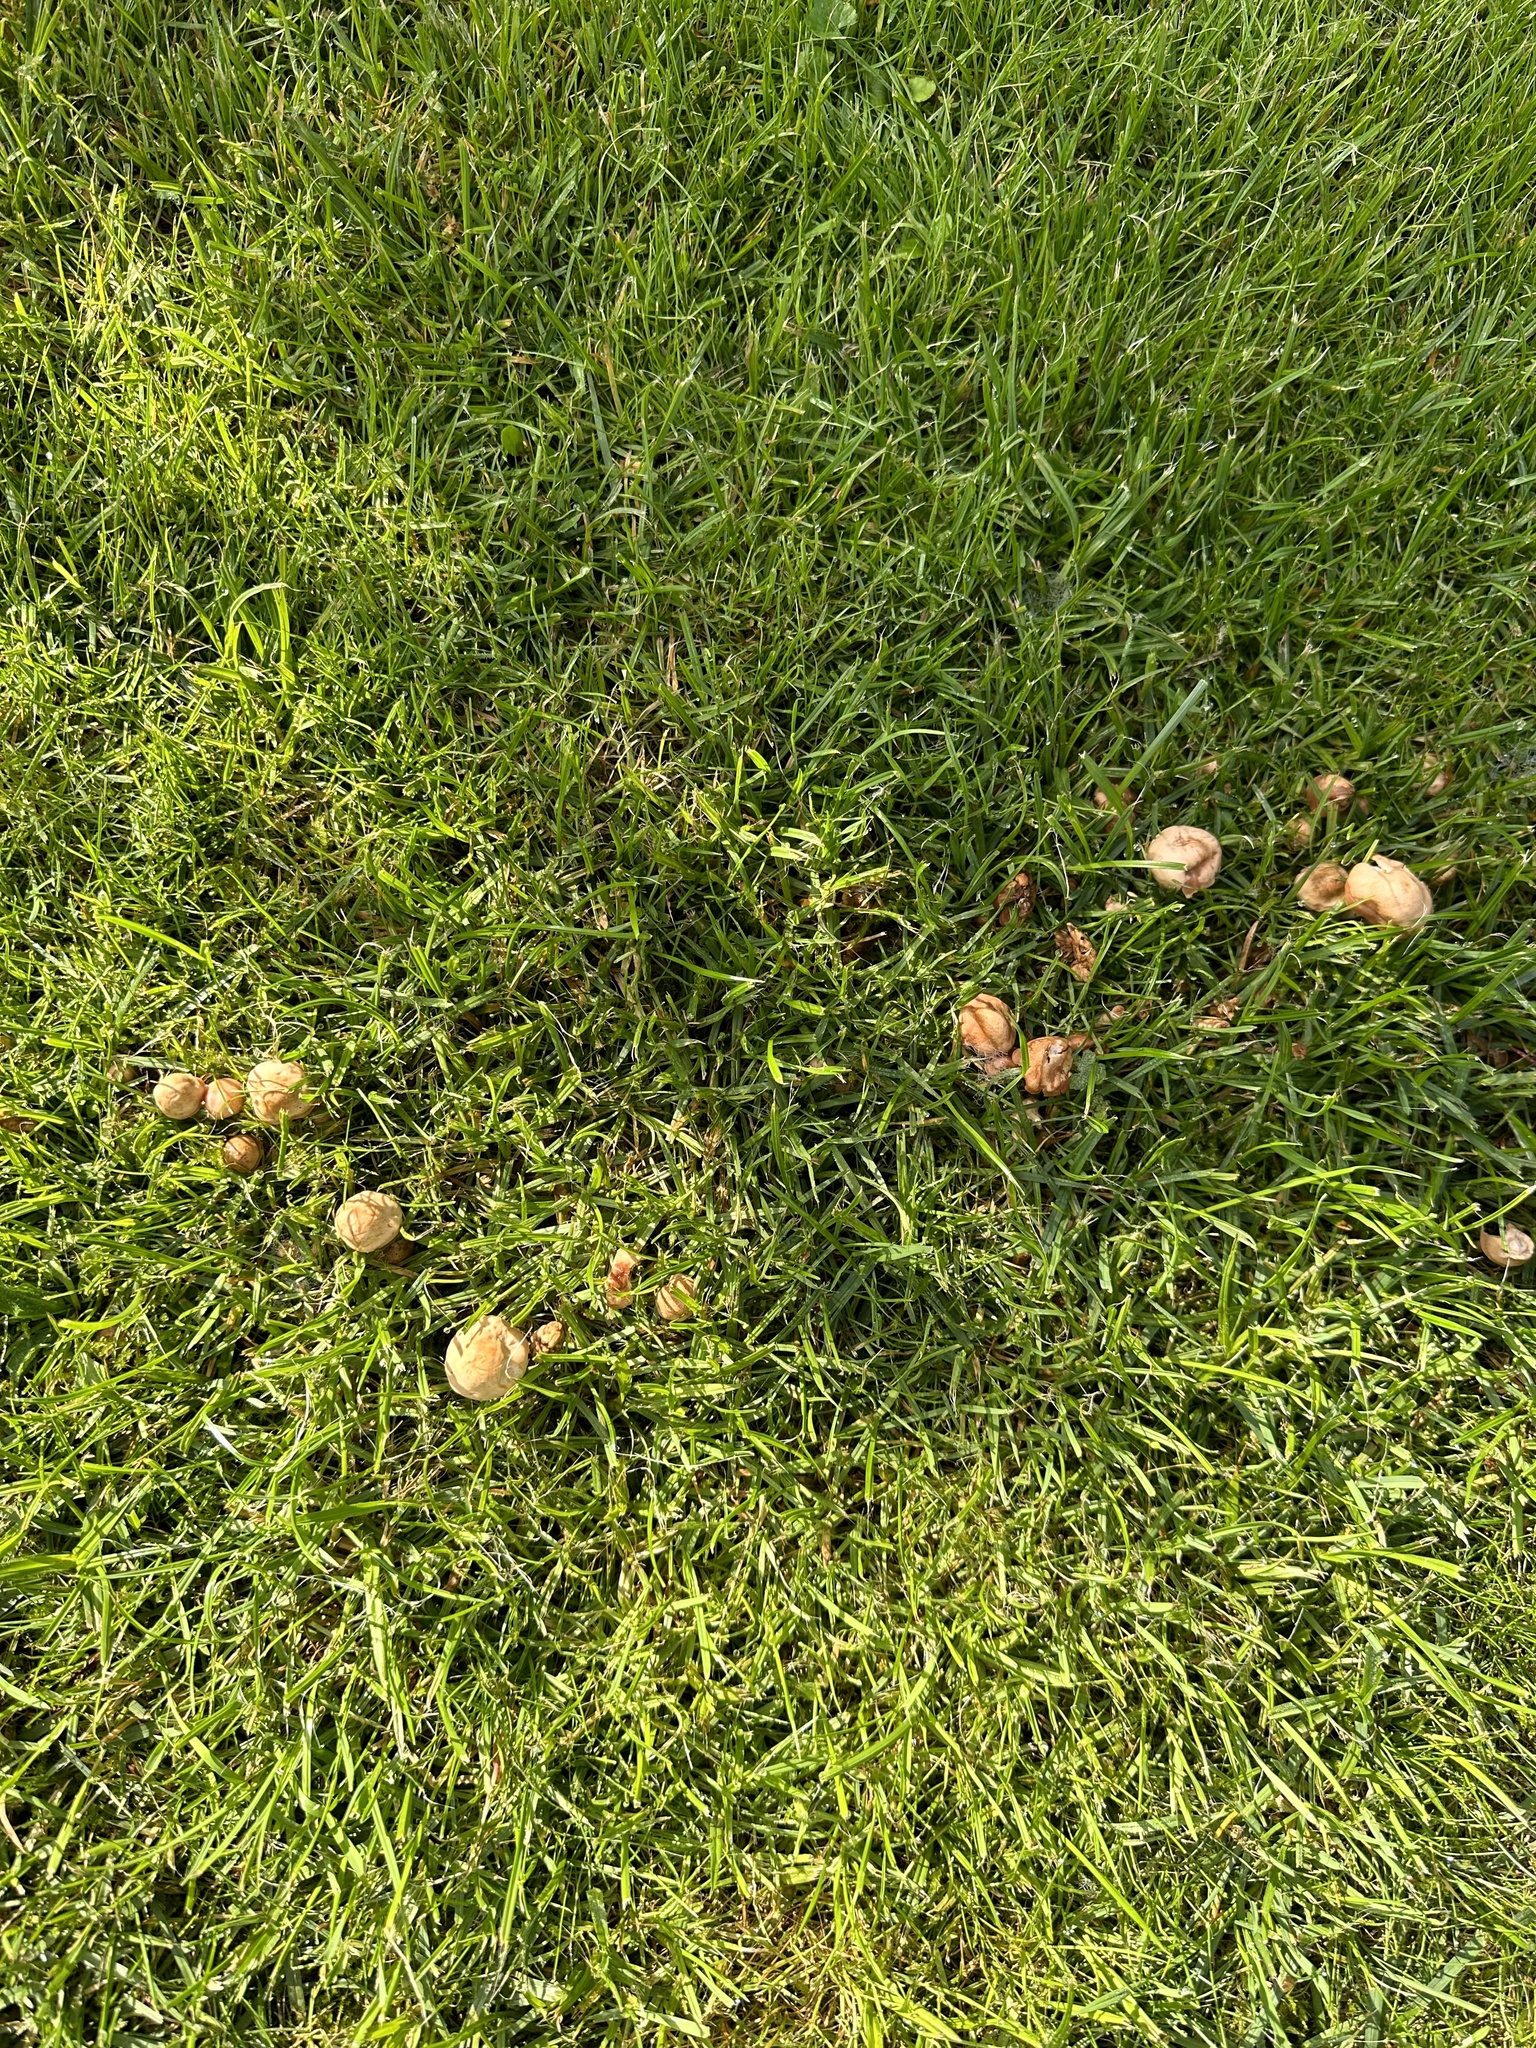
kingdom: Fungi
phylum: Basidiomycota
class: Agaricomycetes
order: Agaricales
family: Marasmiaceae
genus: Marasmius
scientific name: Marasmius oreades
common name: Fairy ring champignon
